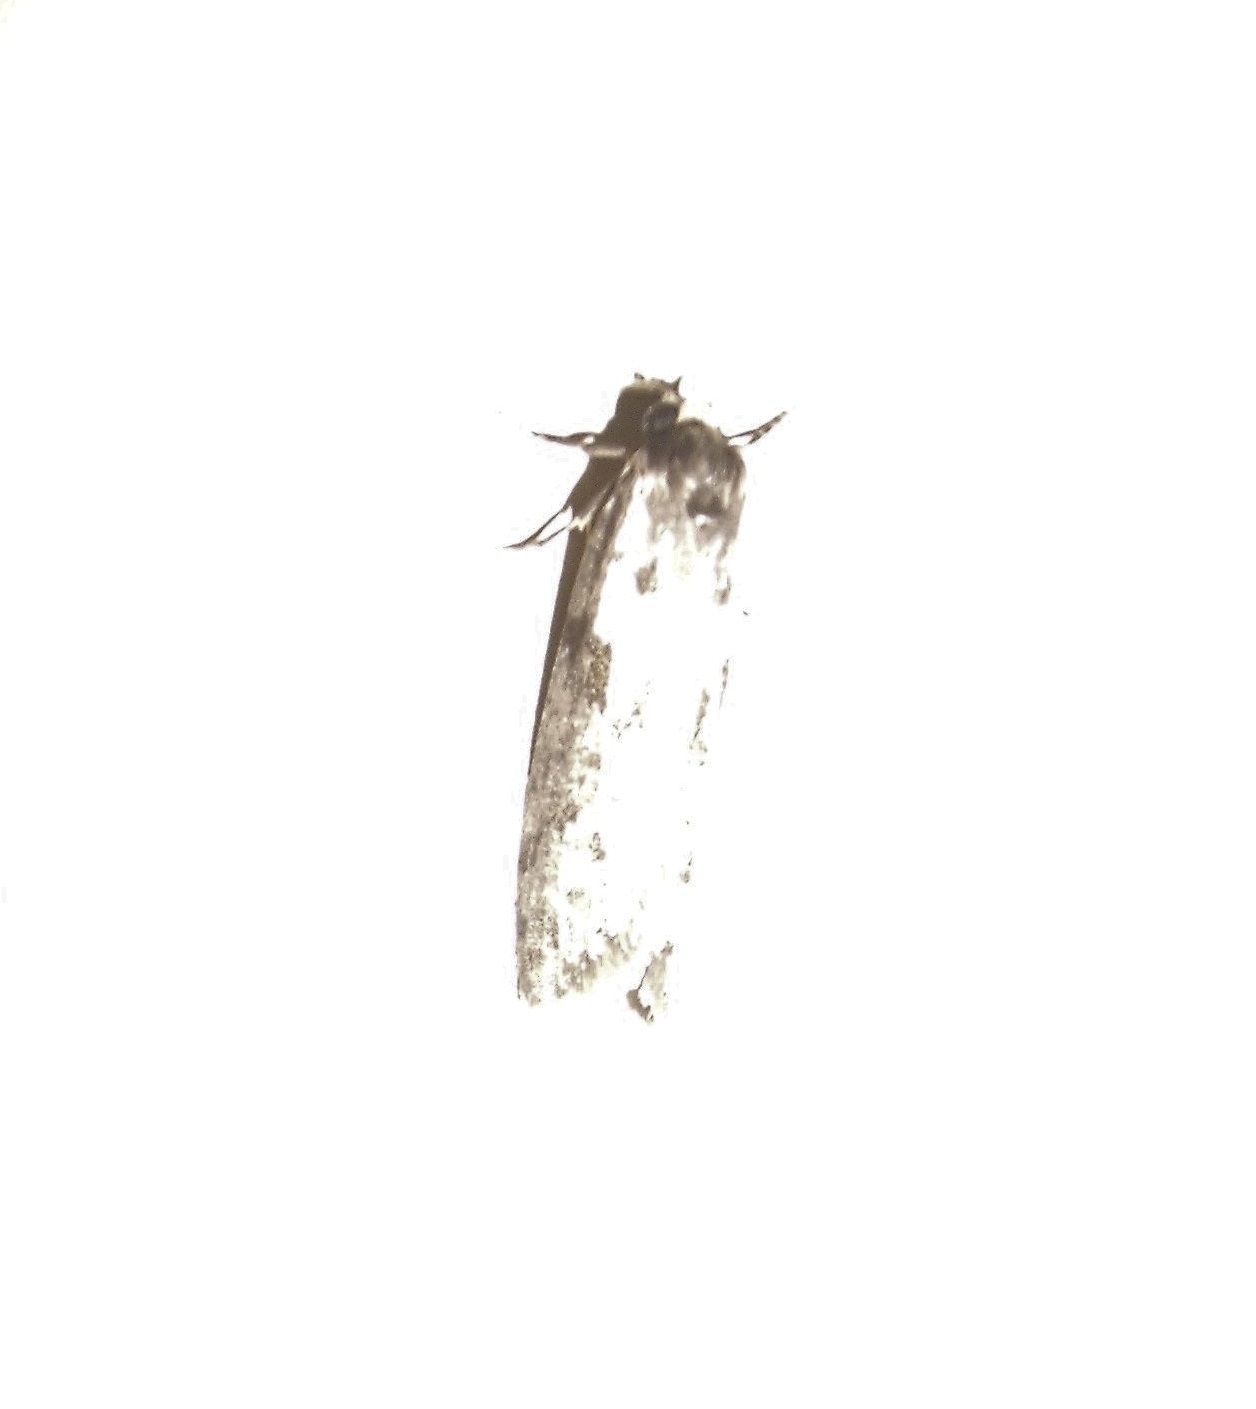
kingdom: Animalia
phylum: Arthropoda
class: Insecta
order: Lepidoptera
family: Psychidae
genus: Lepidoscia
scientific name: Lepidoscia protorna
